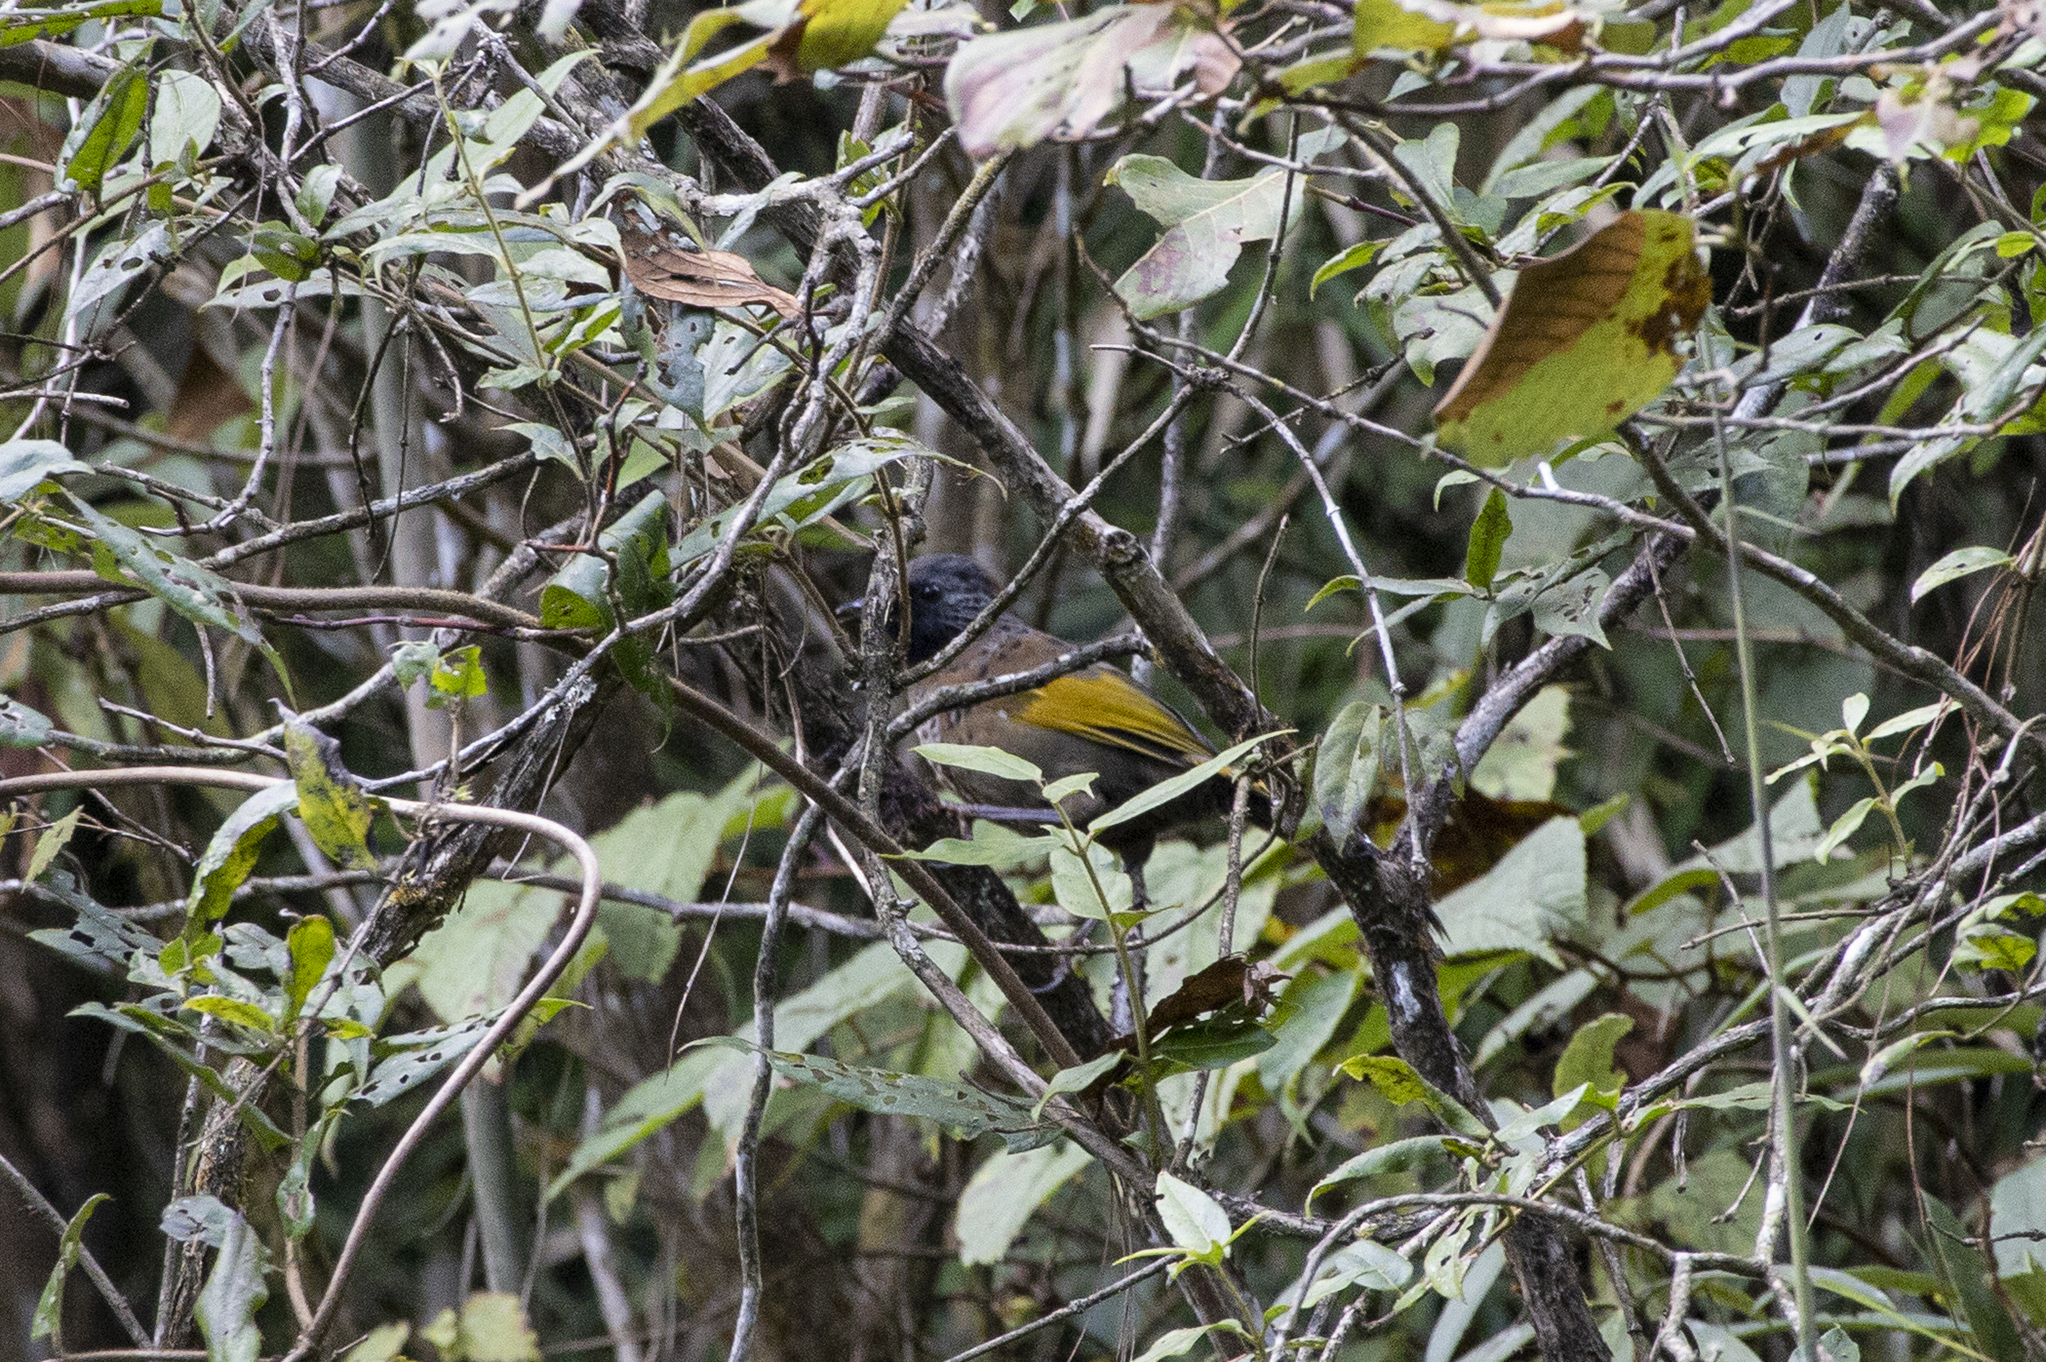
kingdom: Animalia
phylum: Chordata
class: Aves
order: Passeriformes
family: Leiothrichidae
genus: Trochalopteron
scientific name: Trochalopteron erythrocephalum
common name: Chestnut-crowned laughingthrush
